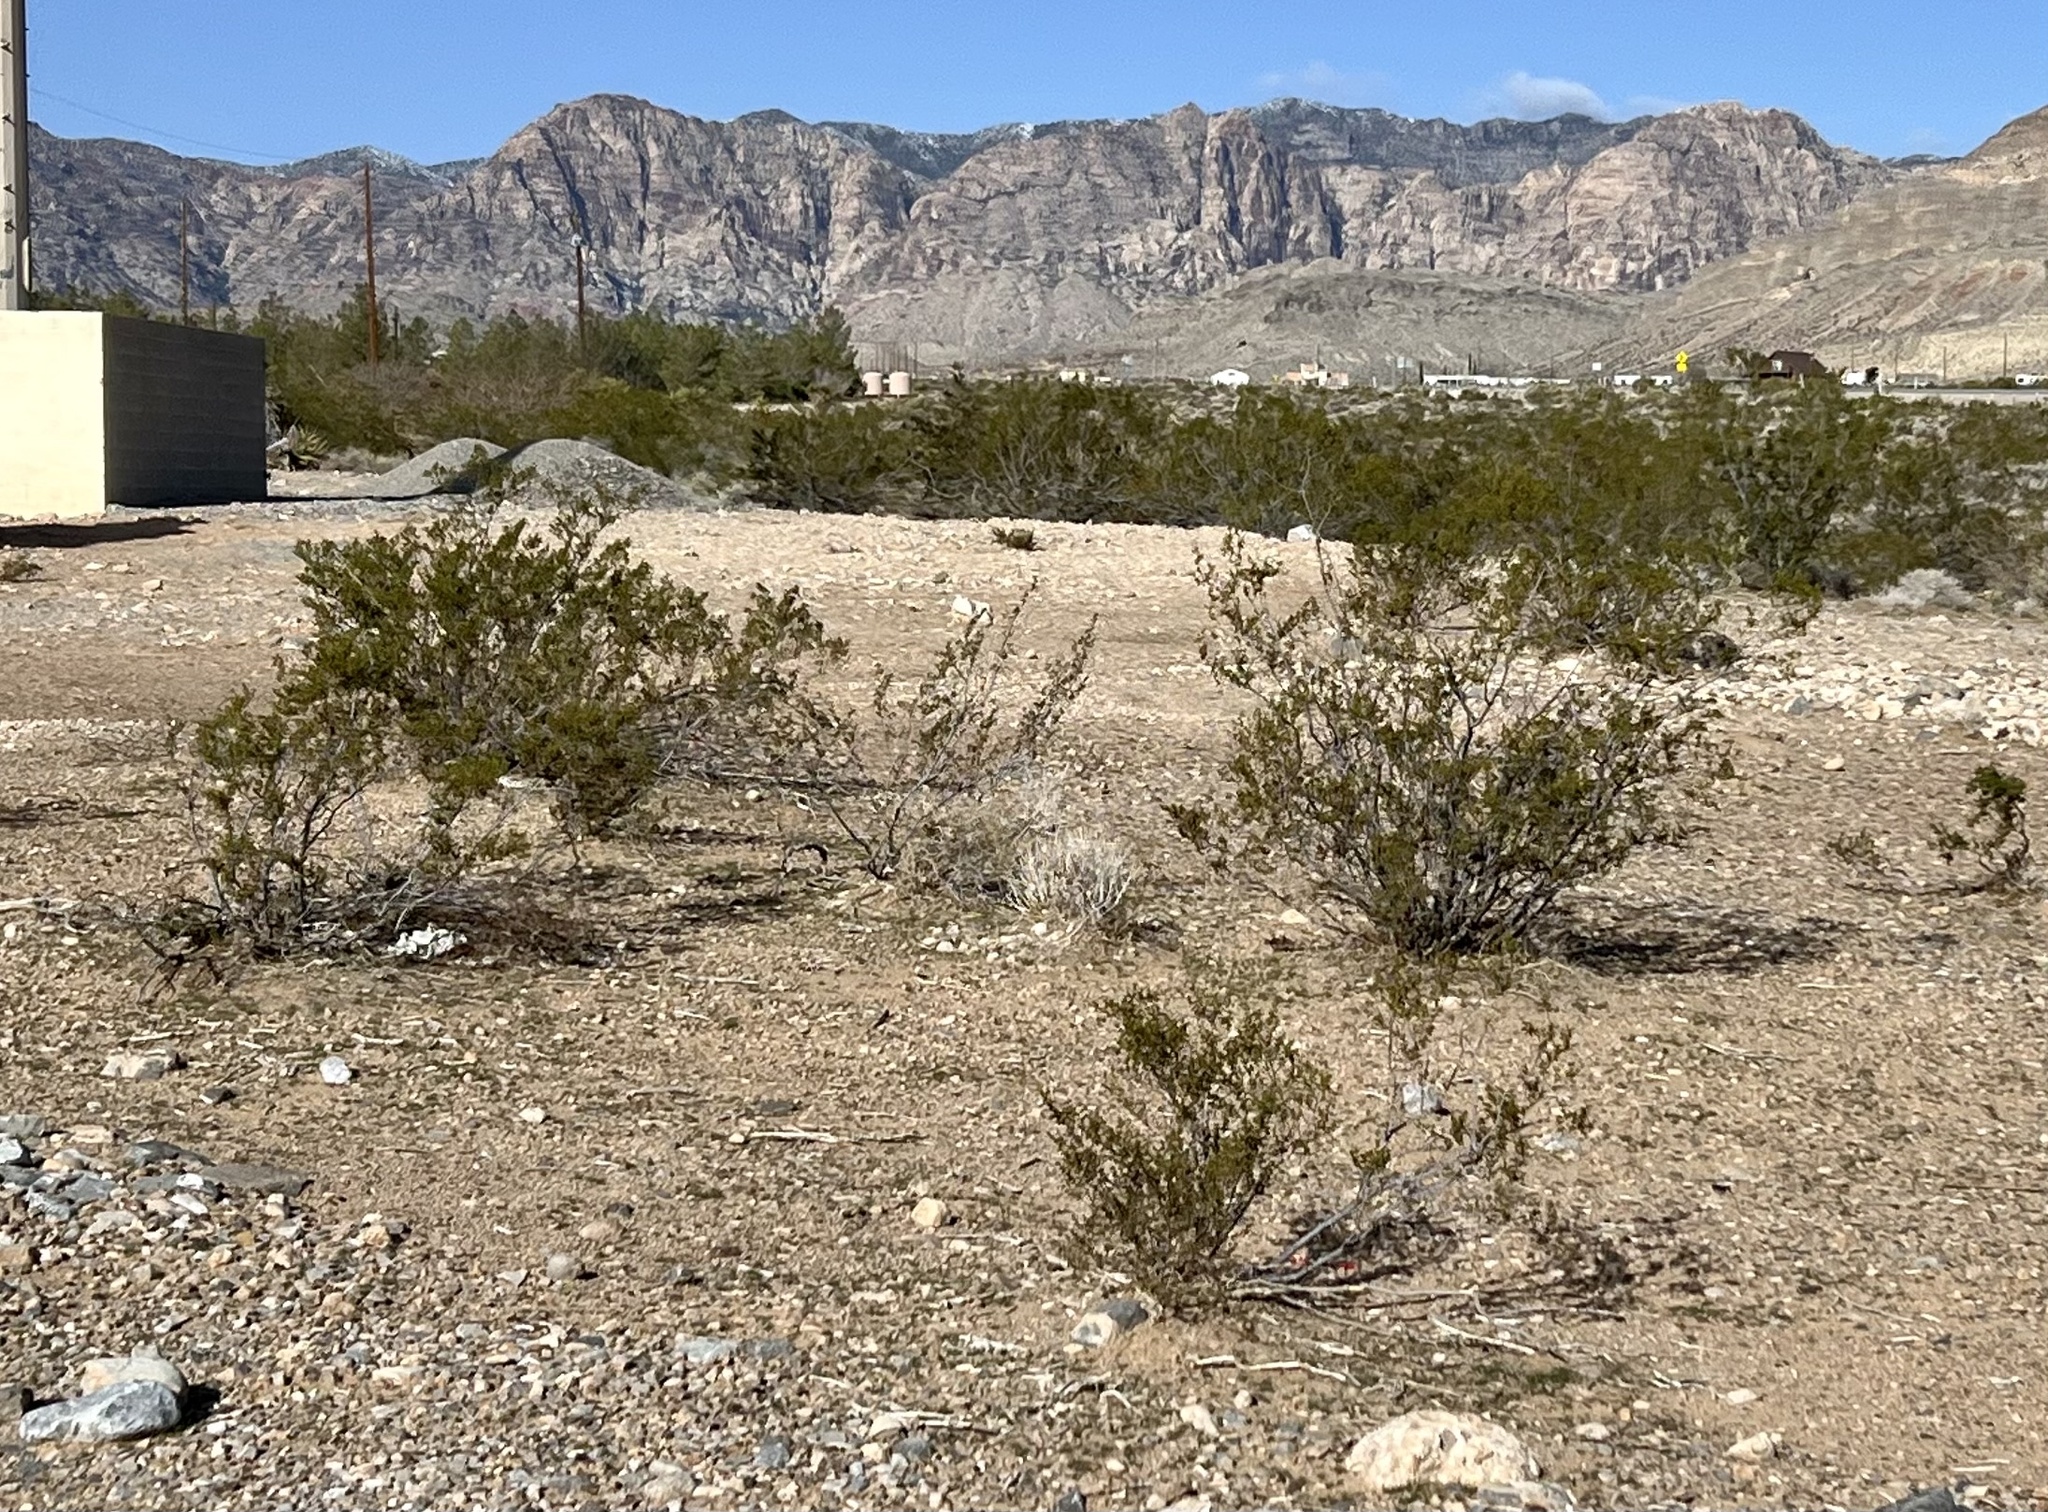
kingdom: Plantae
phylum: Tracheophyta
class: Magnoliopsida
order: Zygophyllales
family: Zygophyllaceae
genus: Larrea
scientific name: Larrea tridentata
